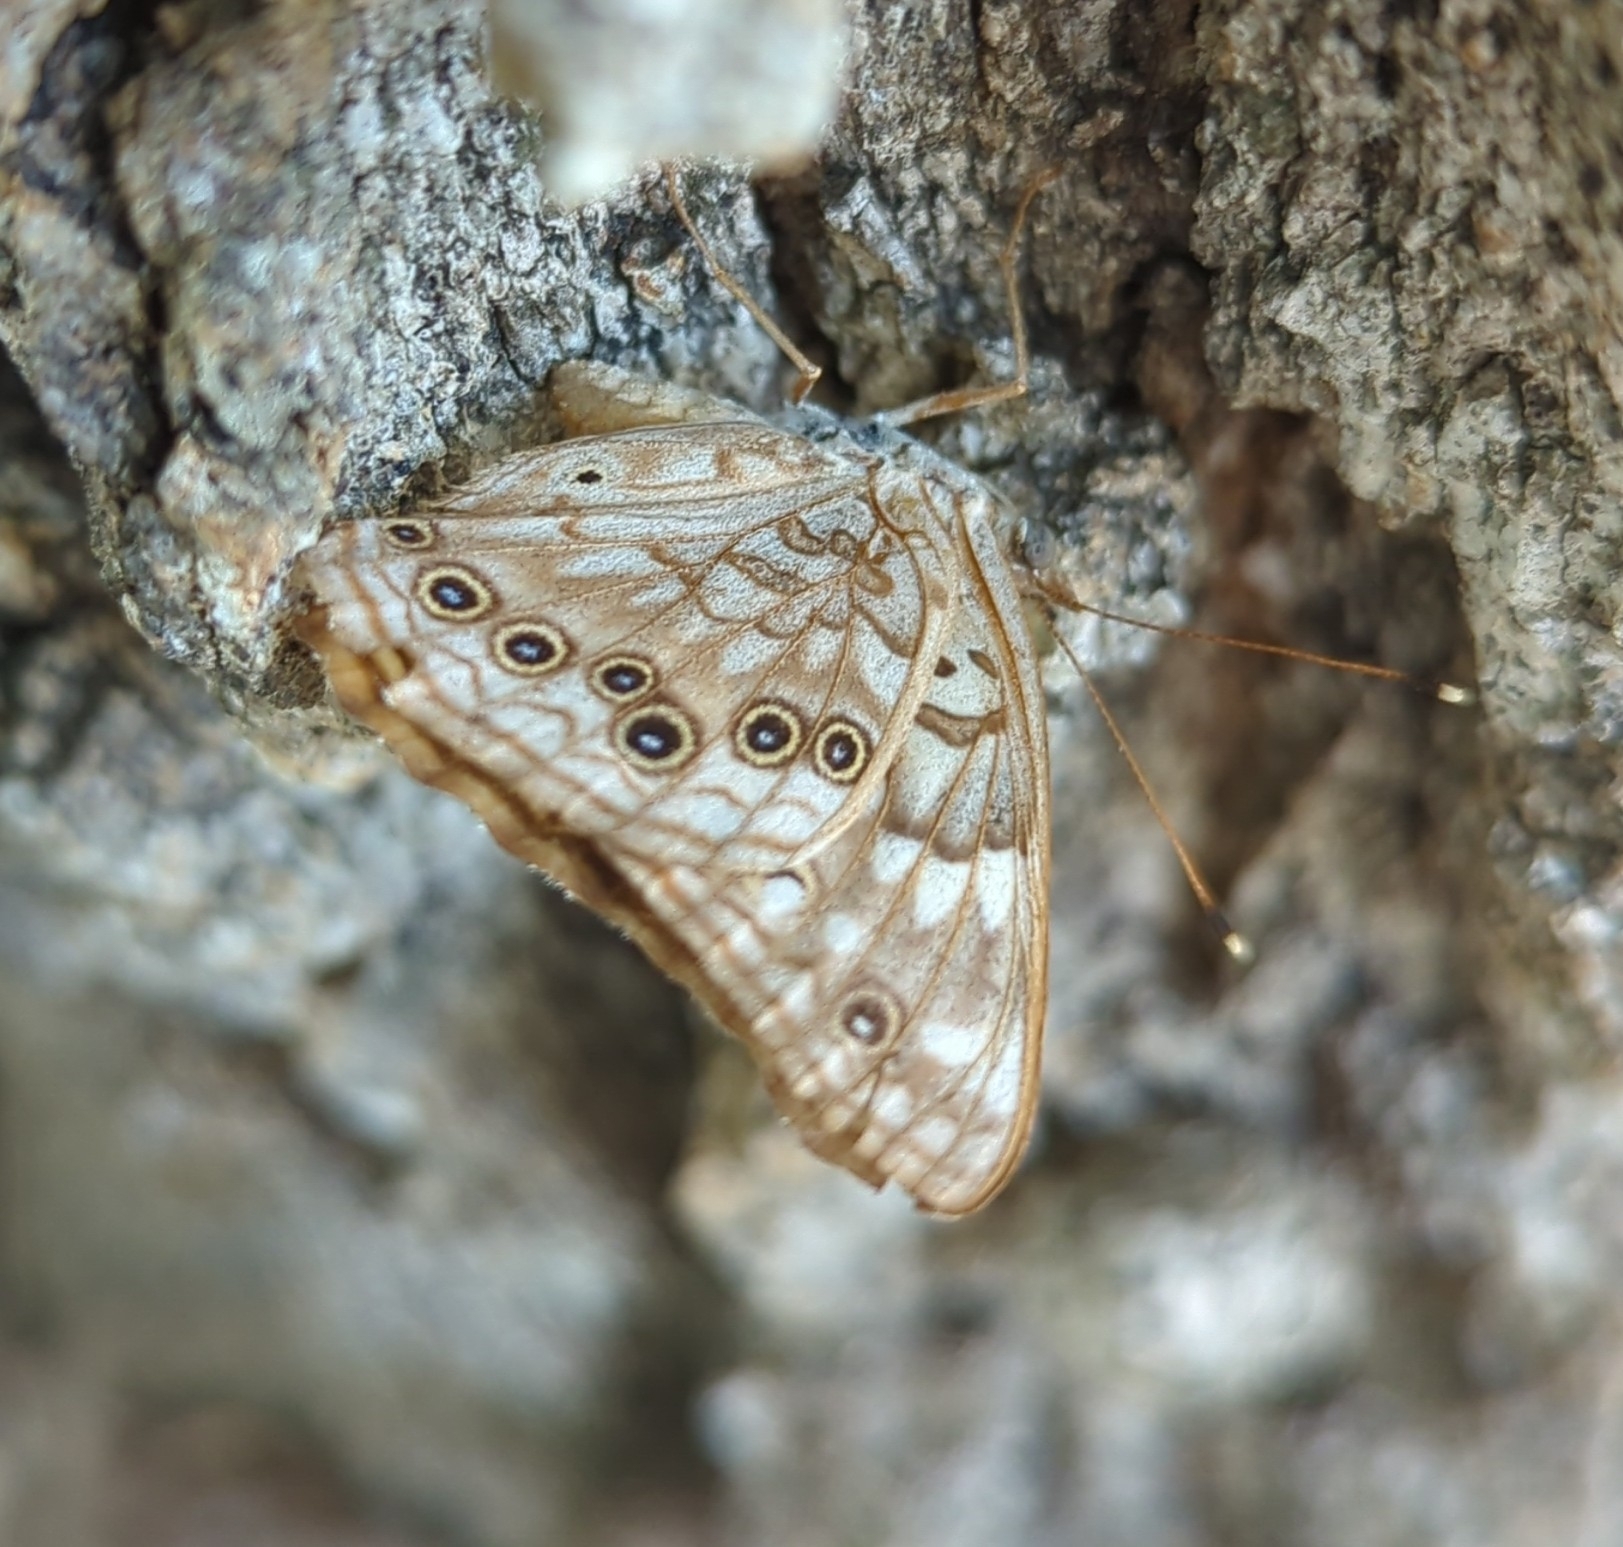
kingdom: Animalia
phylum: Arthropoda
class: Insecta
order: Lepidoptera
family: Nymphalidae
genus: Asterocampa
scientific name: Asterocampa celtis
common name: Hackberry emperor
